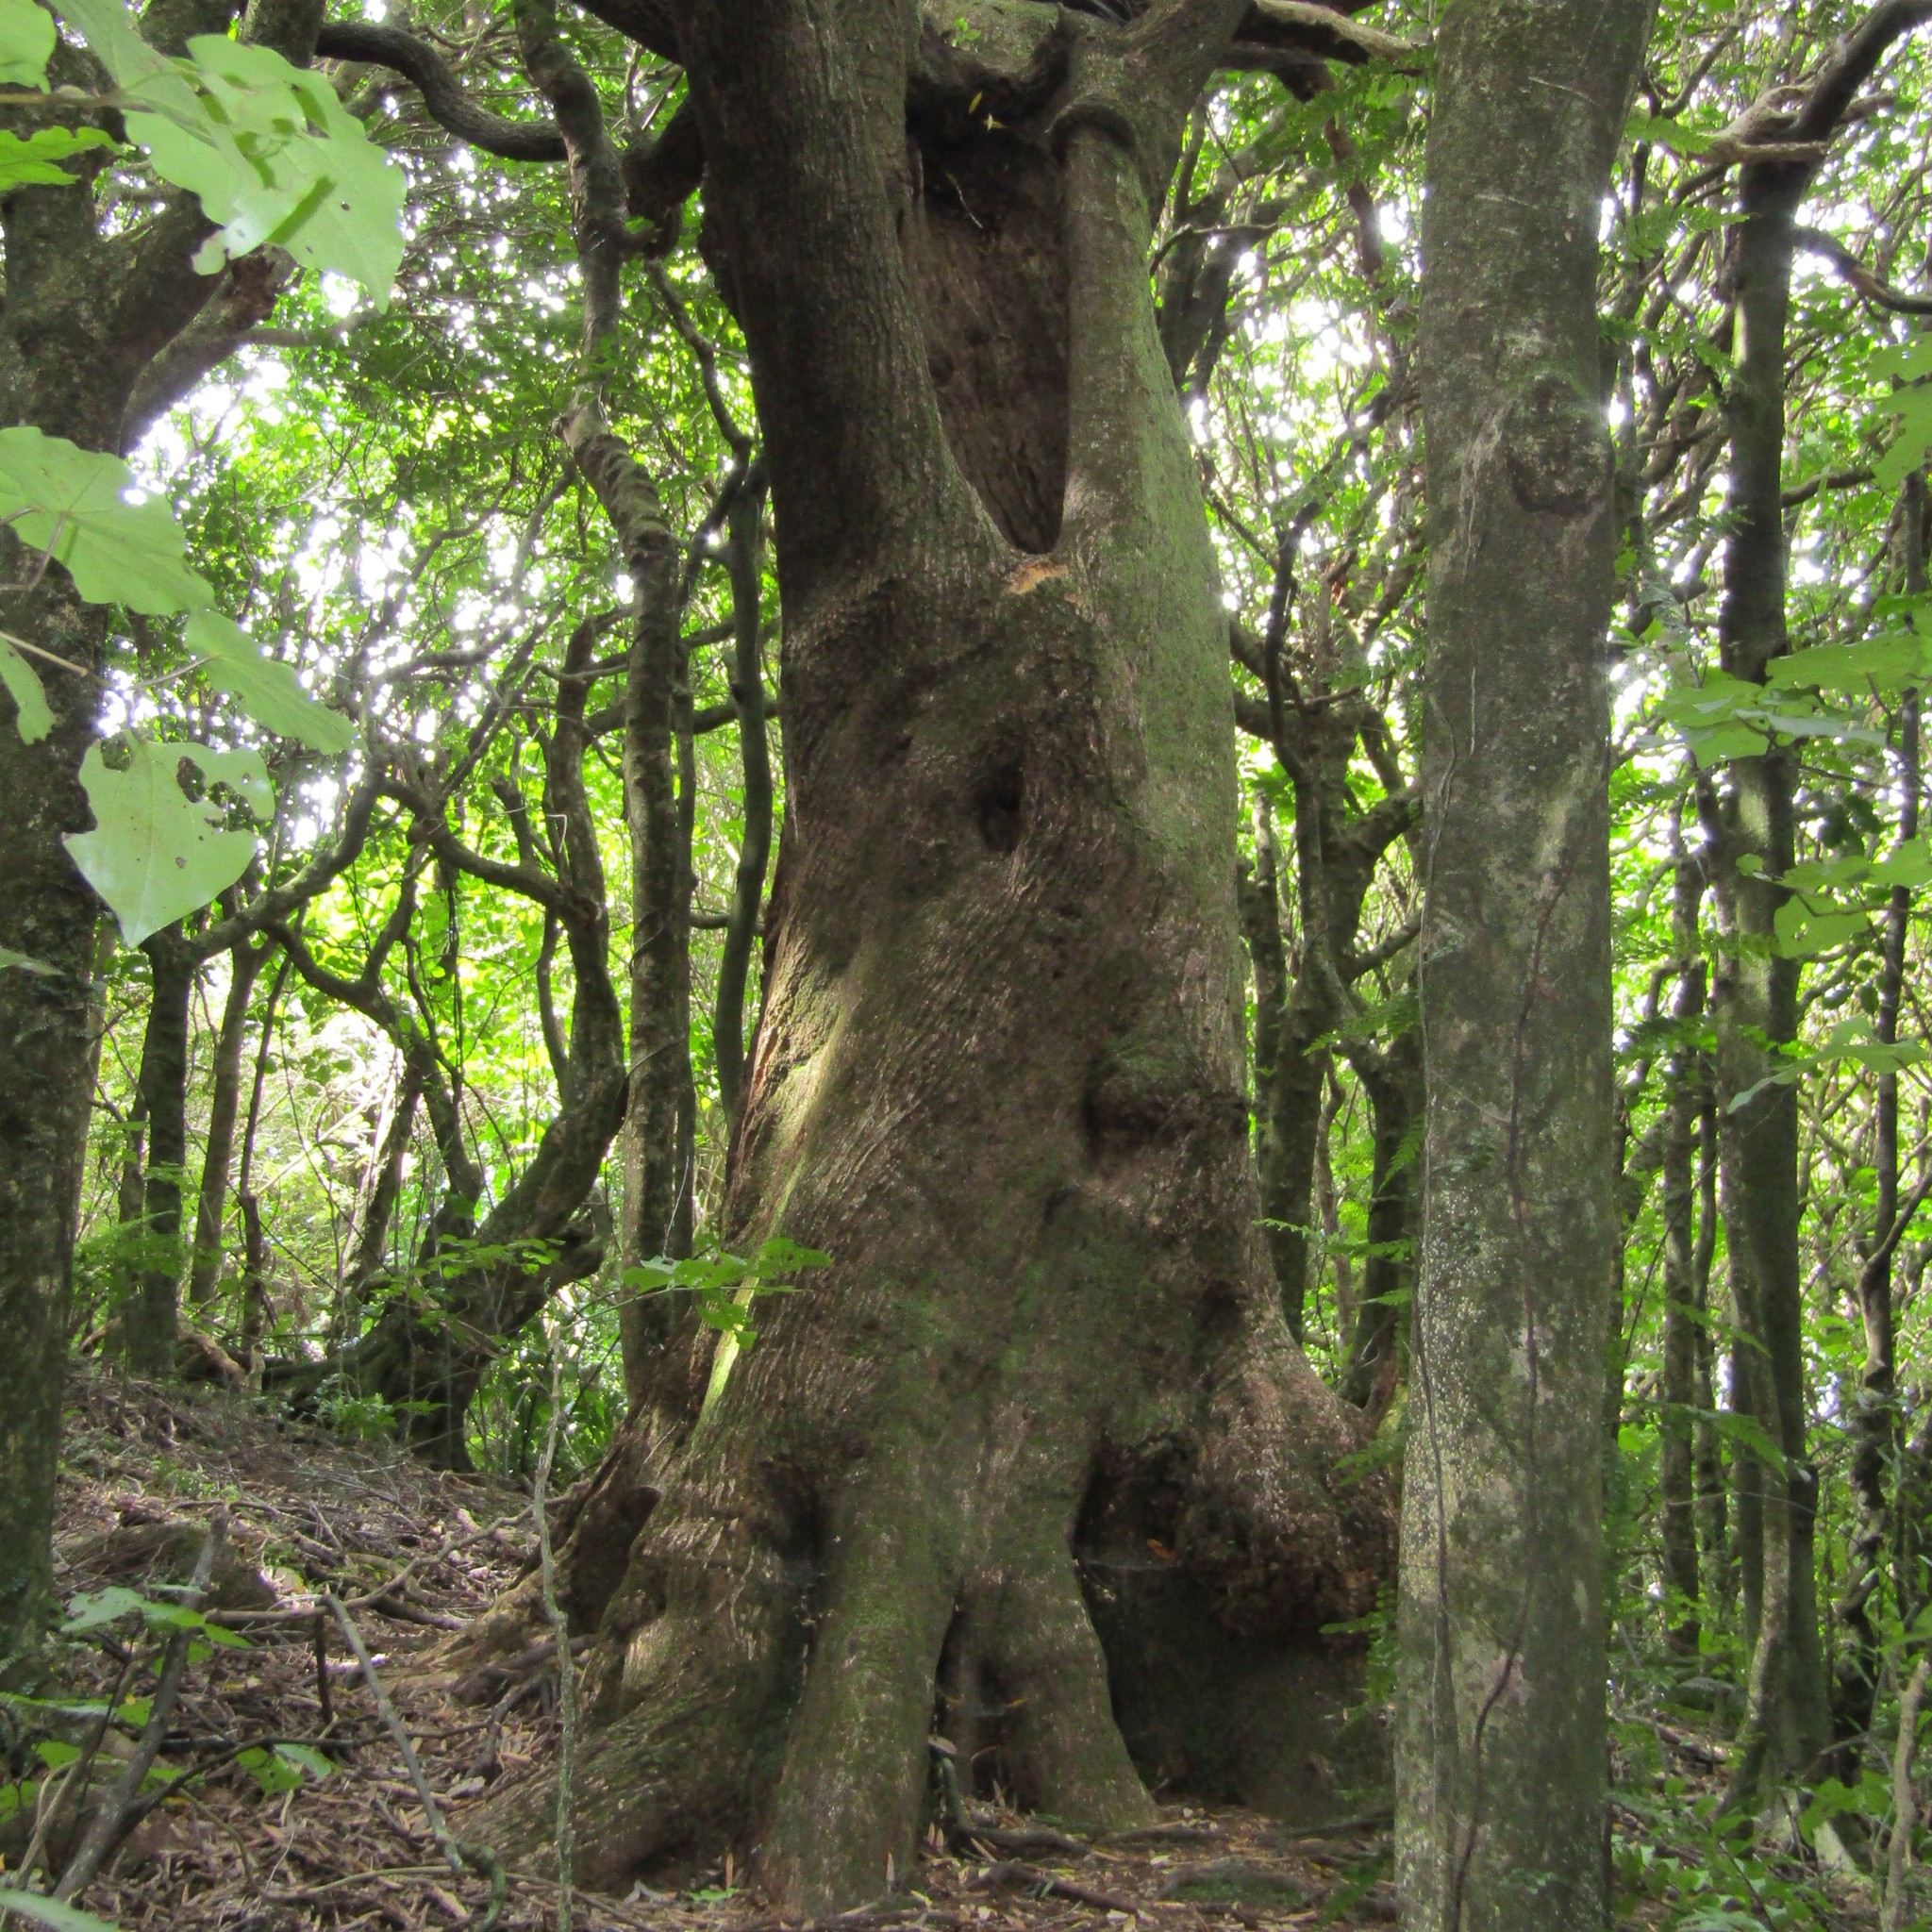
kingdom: Plantae
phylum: Tracheophyta
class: Magnoliopsida
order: Laurales
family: Lauraceae
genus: Beilschmiedia
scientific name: Beilschmiedia tawa
